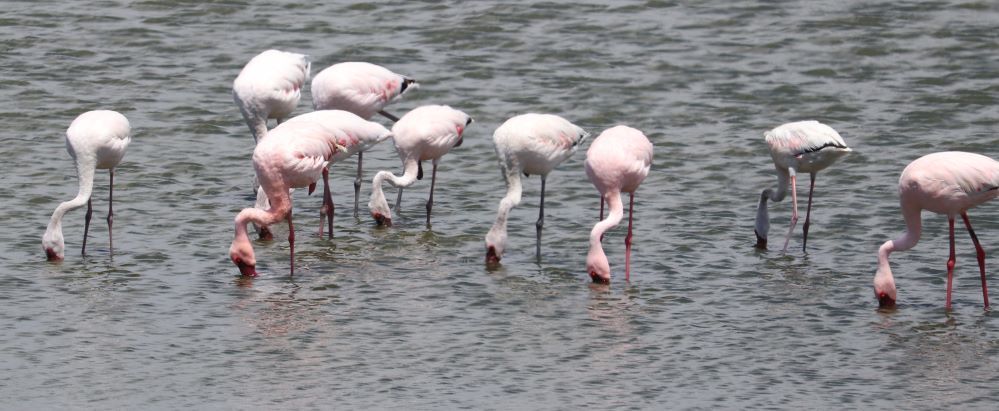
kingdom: Animalia
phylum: Chordata
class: Aves
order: Phoenicopteriformes
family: Phoenicopteridae
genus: Phoeniconaias
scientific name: Phoeniconaias minor
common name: Lesser flamingo
